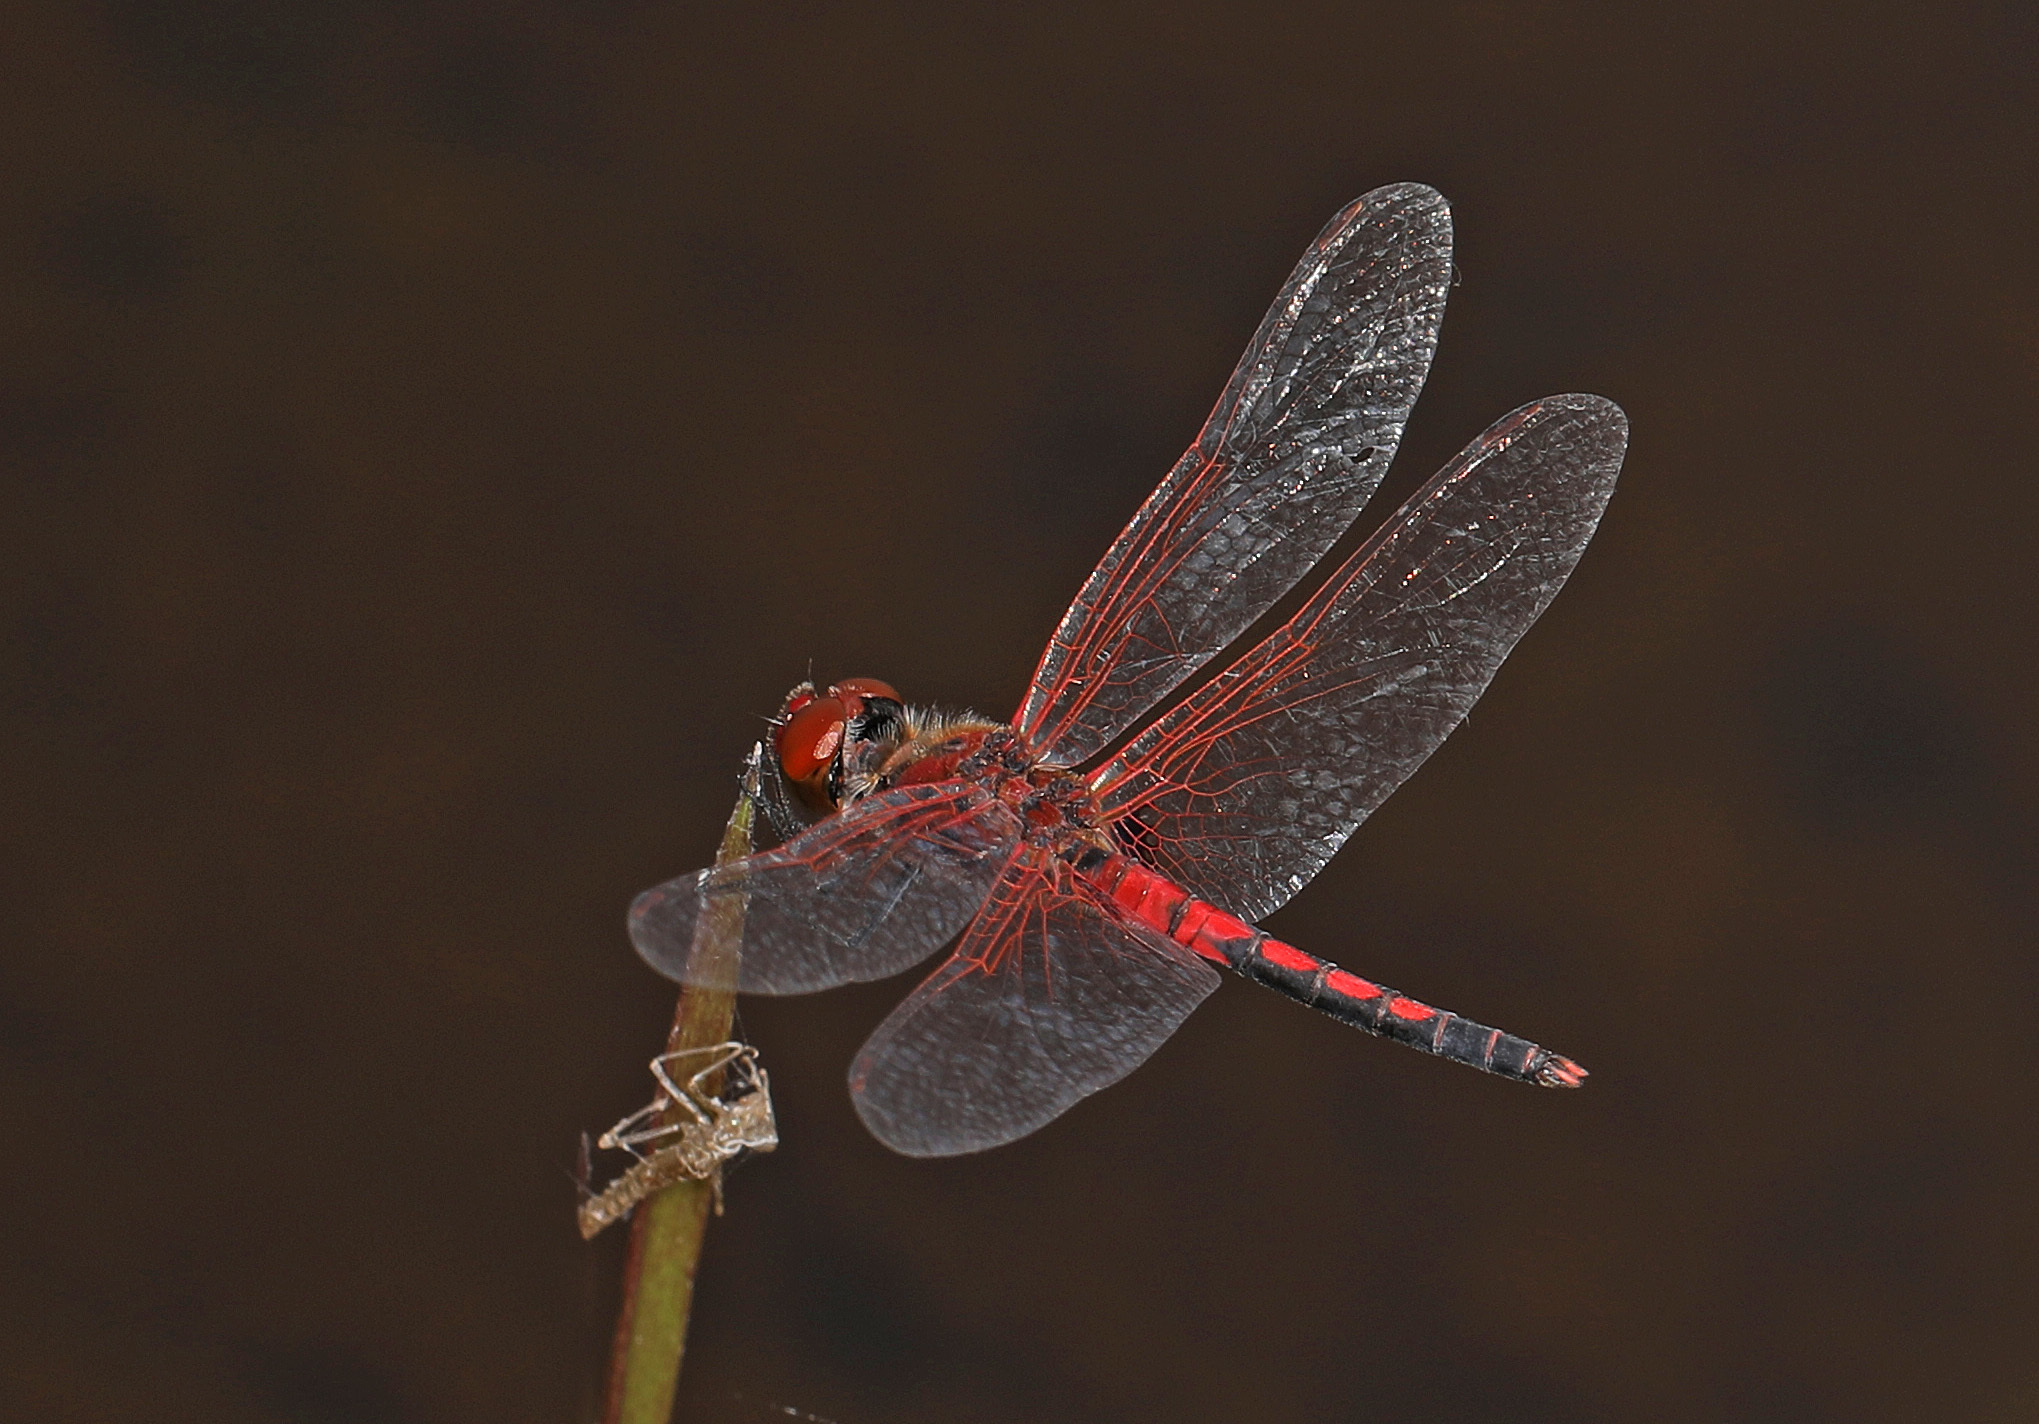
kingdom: Animalia
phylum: Arthropoda
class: Insecta
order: Odonata
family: Libellulidae
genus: Celithemis
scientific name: Celithemis bertha
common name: Red-veined pennant
